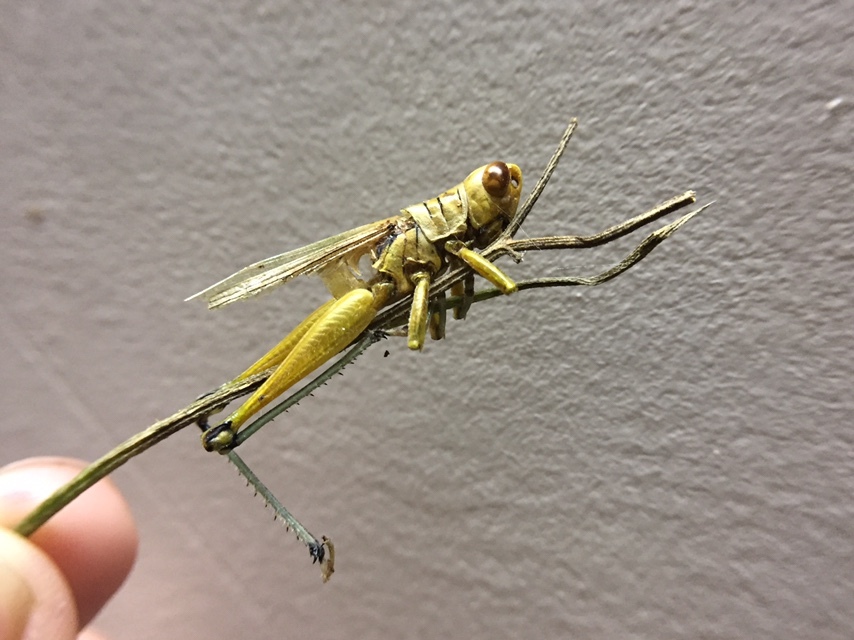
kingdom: Protozoa
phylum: Microsporidia
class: Microsporea
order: Dissociodihaplophasida
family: Nosematidae
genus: Antonospora
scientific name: Antonospora locustae
